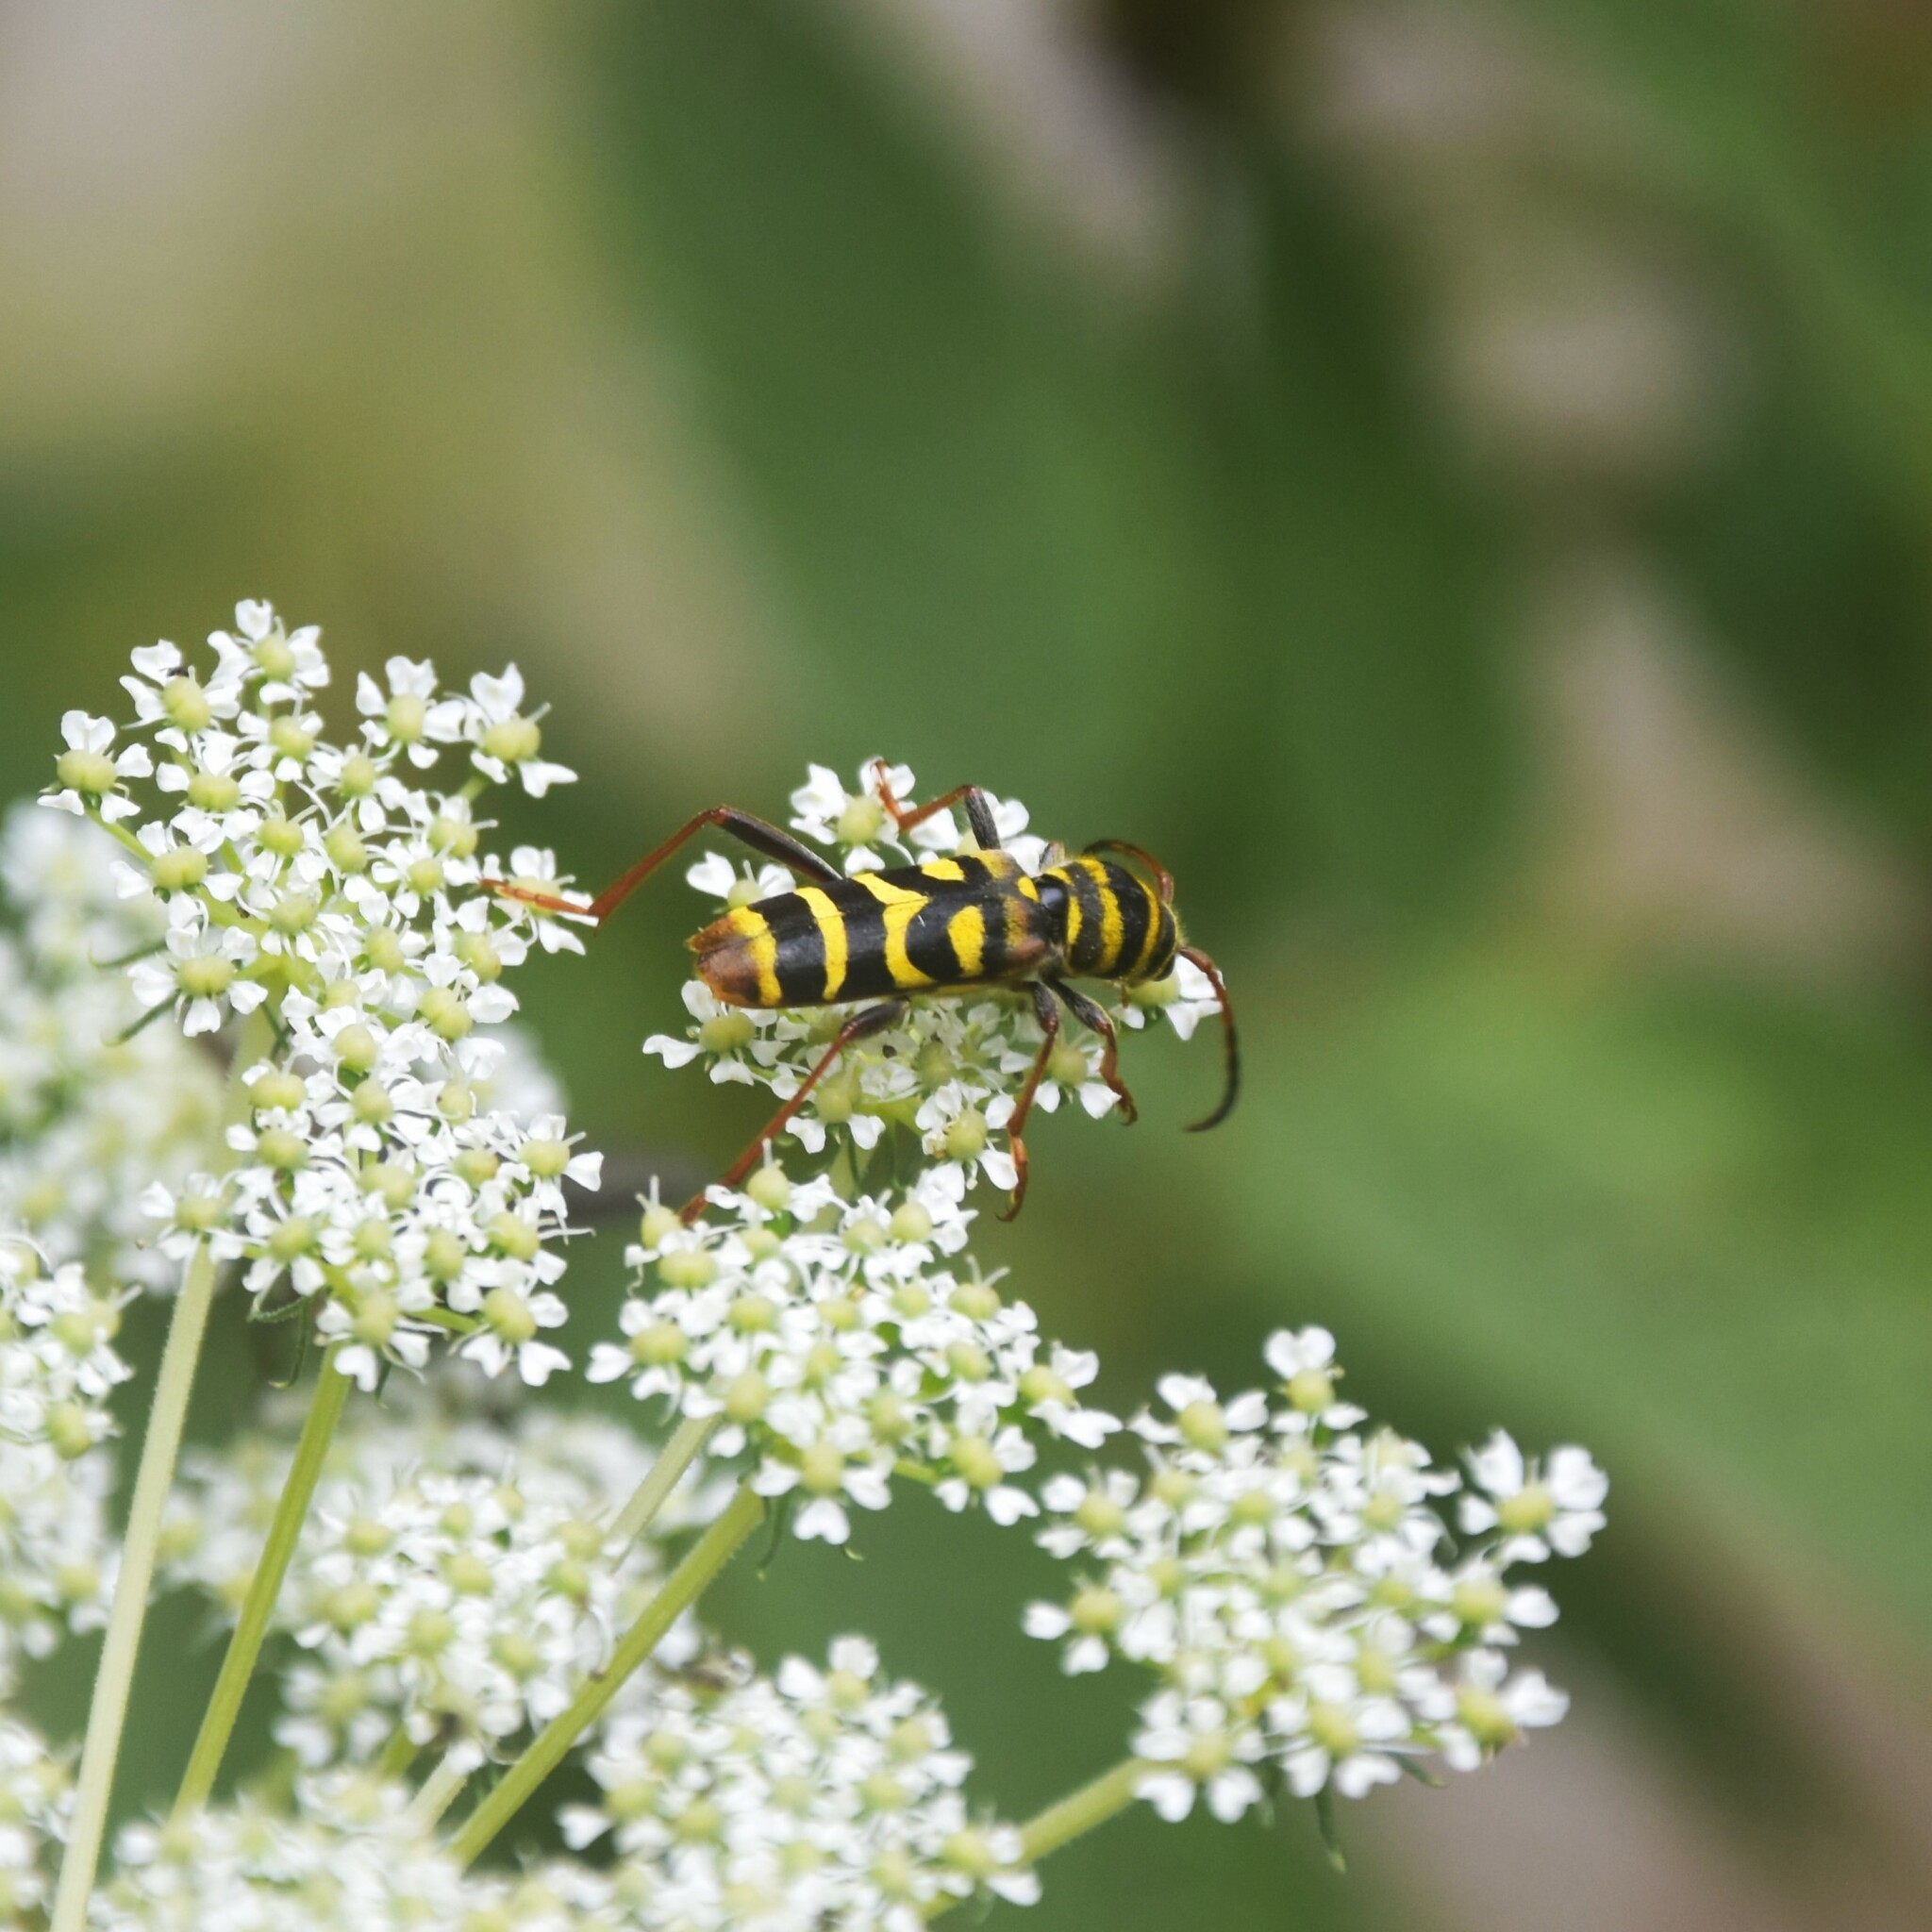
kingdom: Animalia
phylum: Arthropoda
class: Insecta
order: Coleoptera
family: Cerambycidae
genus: Clytus
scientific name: Clytus monticola
